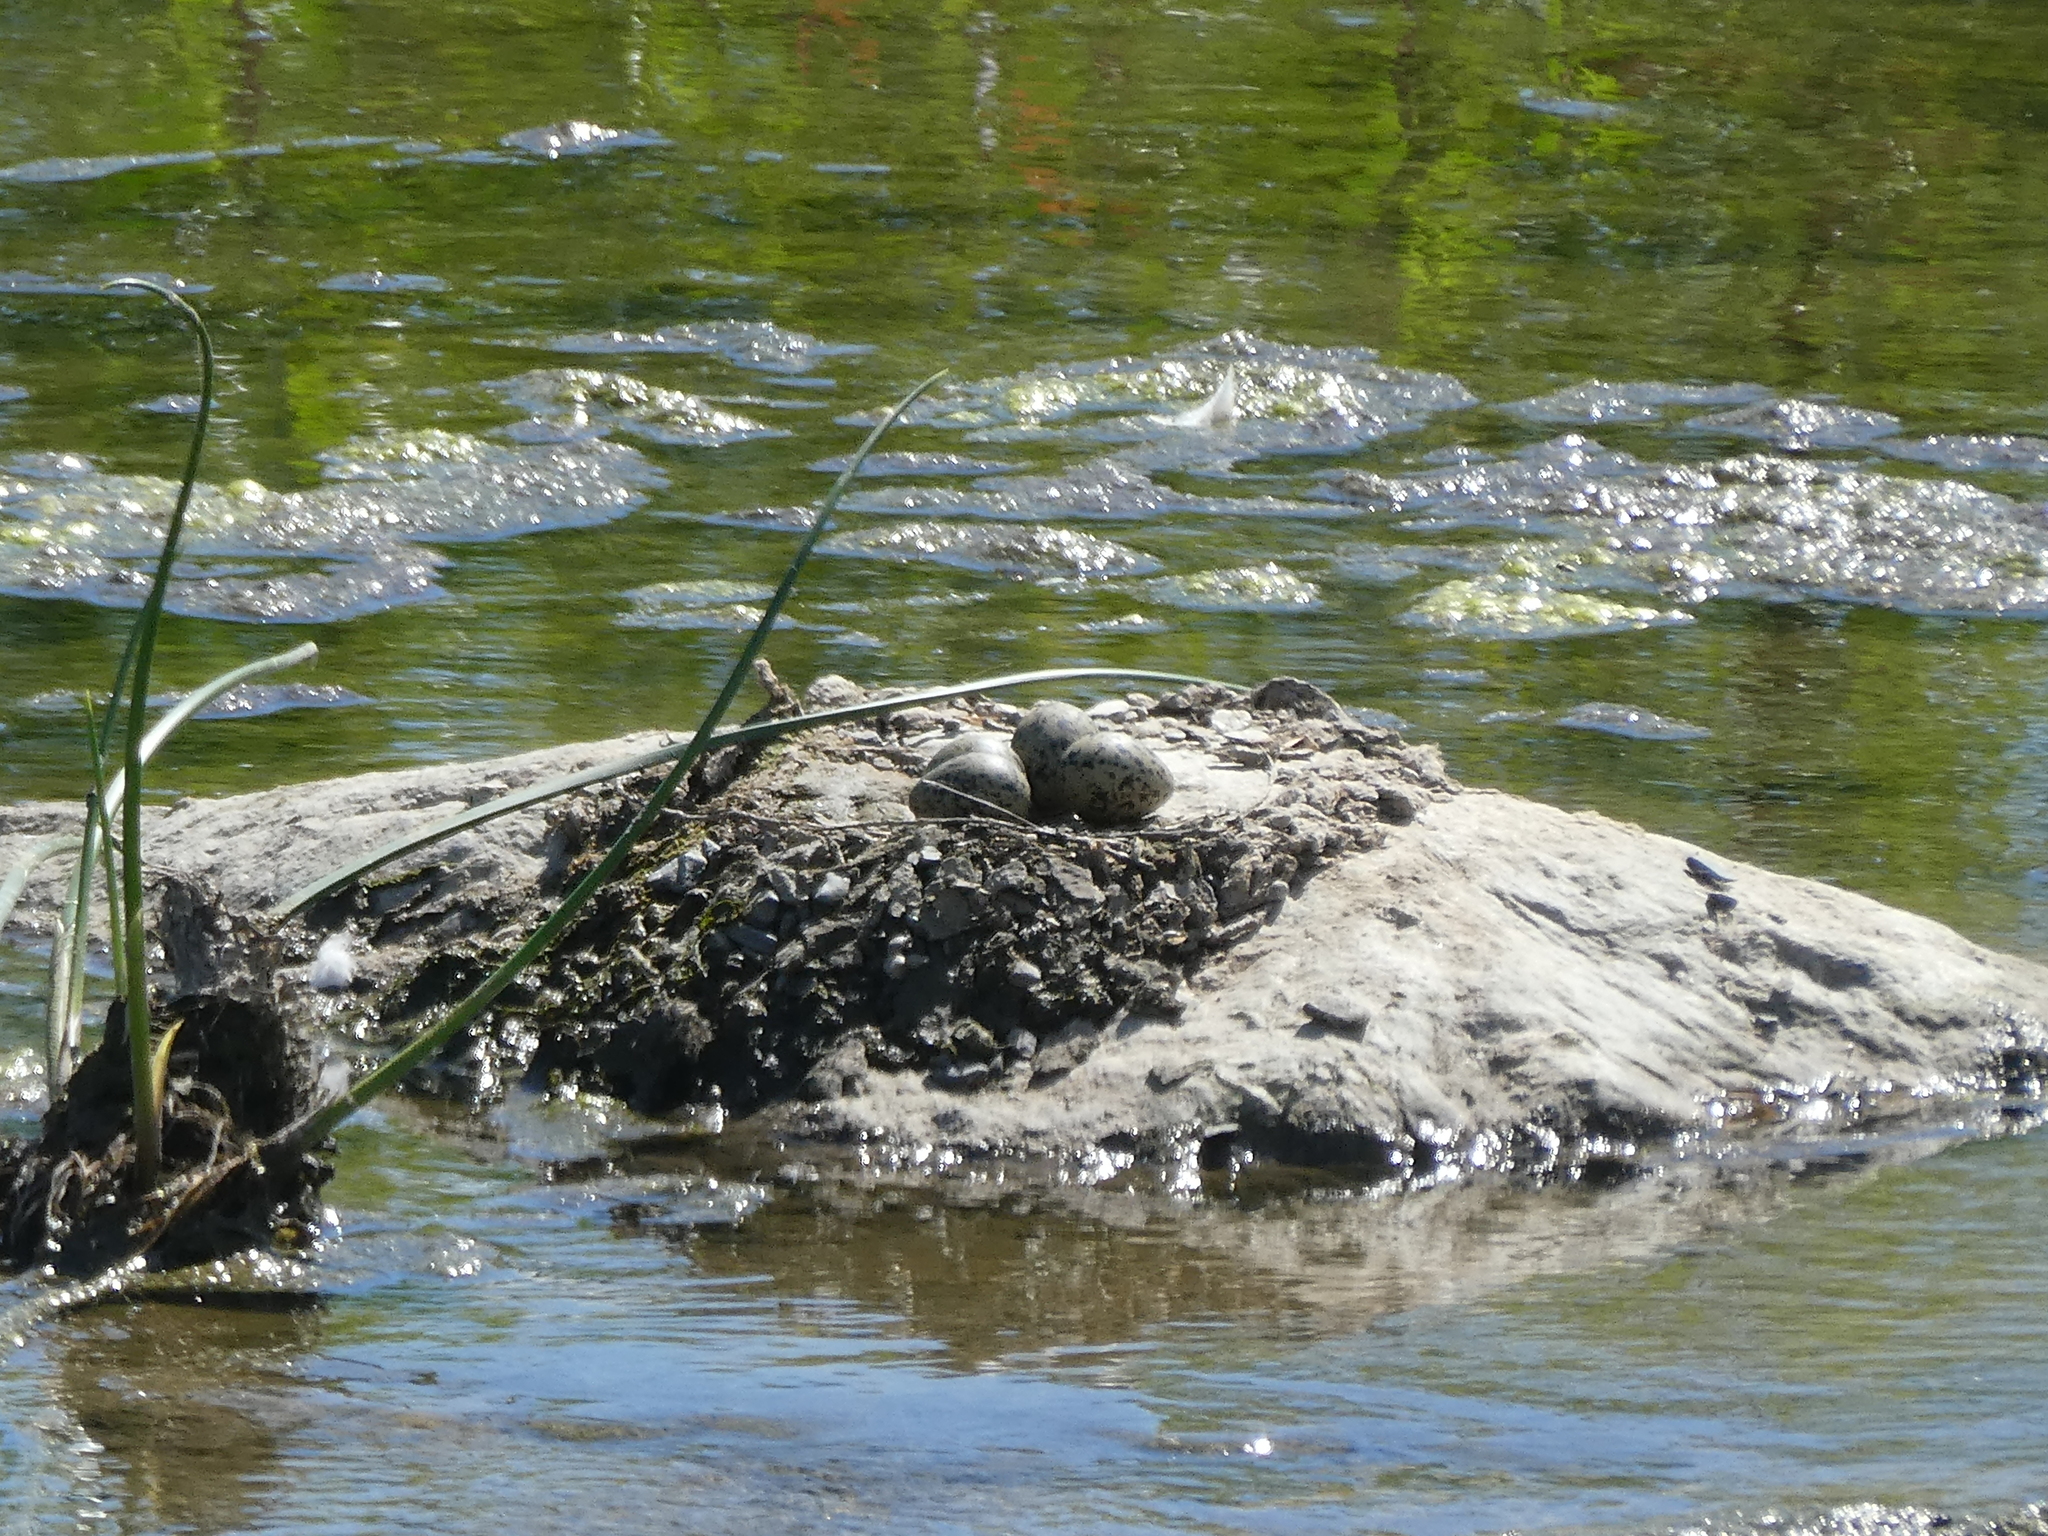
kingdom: Animalia
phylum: Chordata
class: Aves
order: Charadriiformes
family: Recurvirostridae
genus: Himantopus
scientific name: Himantopus mexicanus
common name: Black-necked stilt
